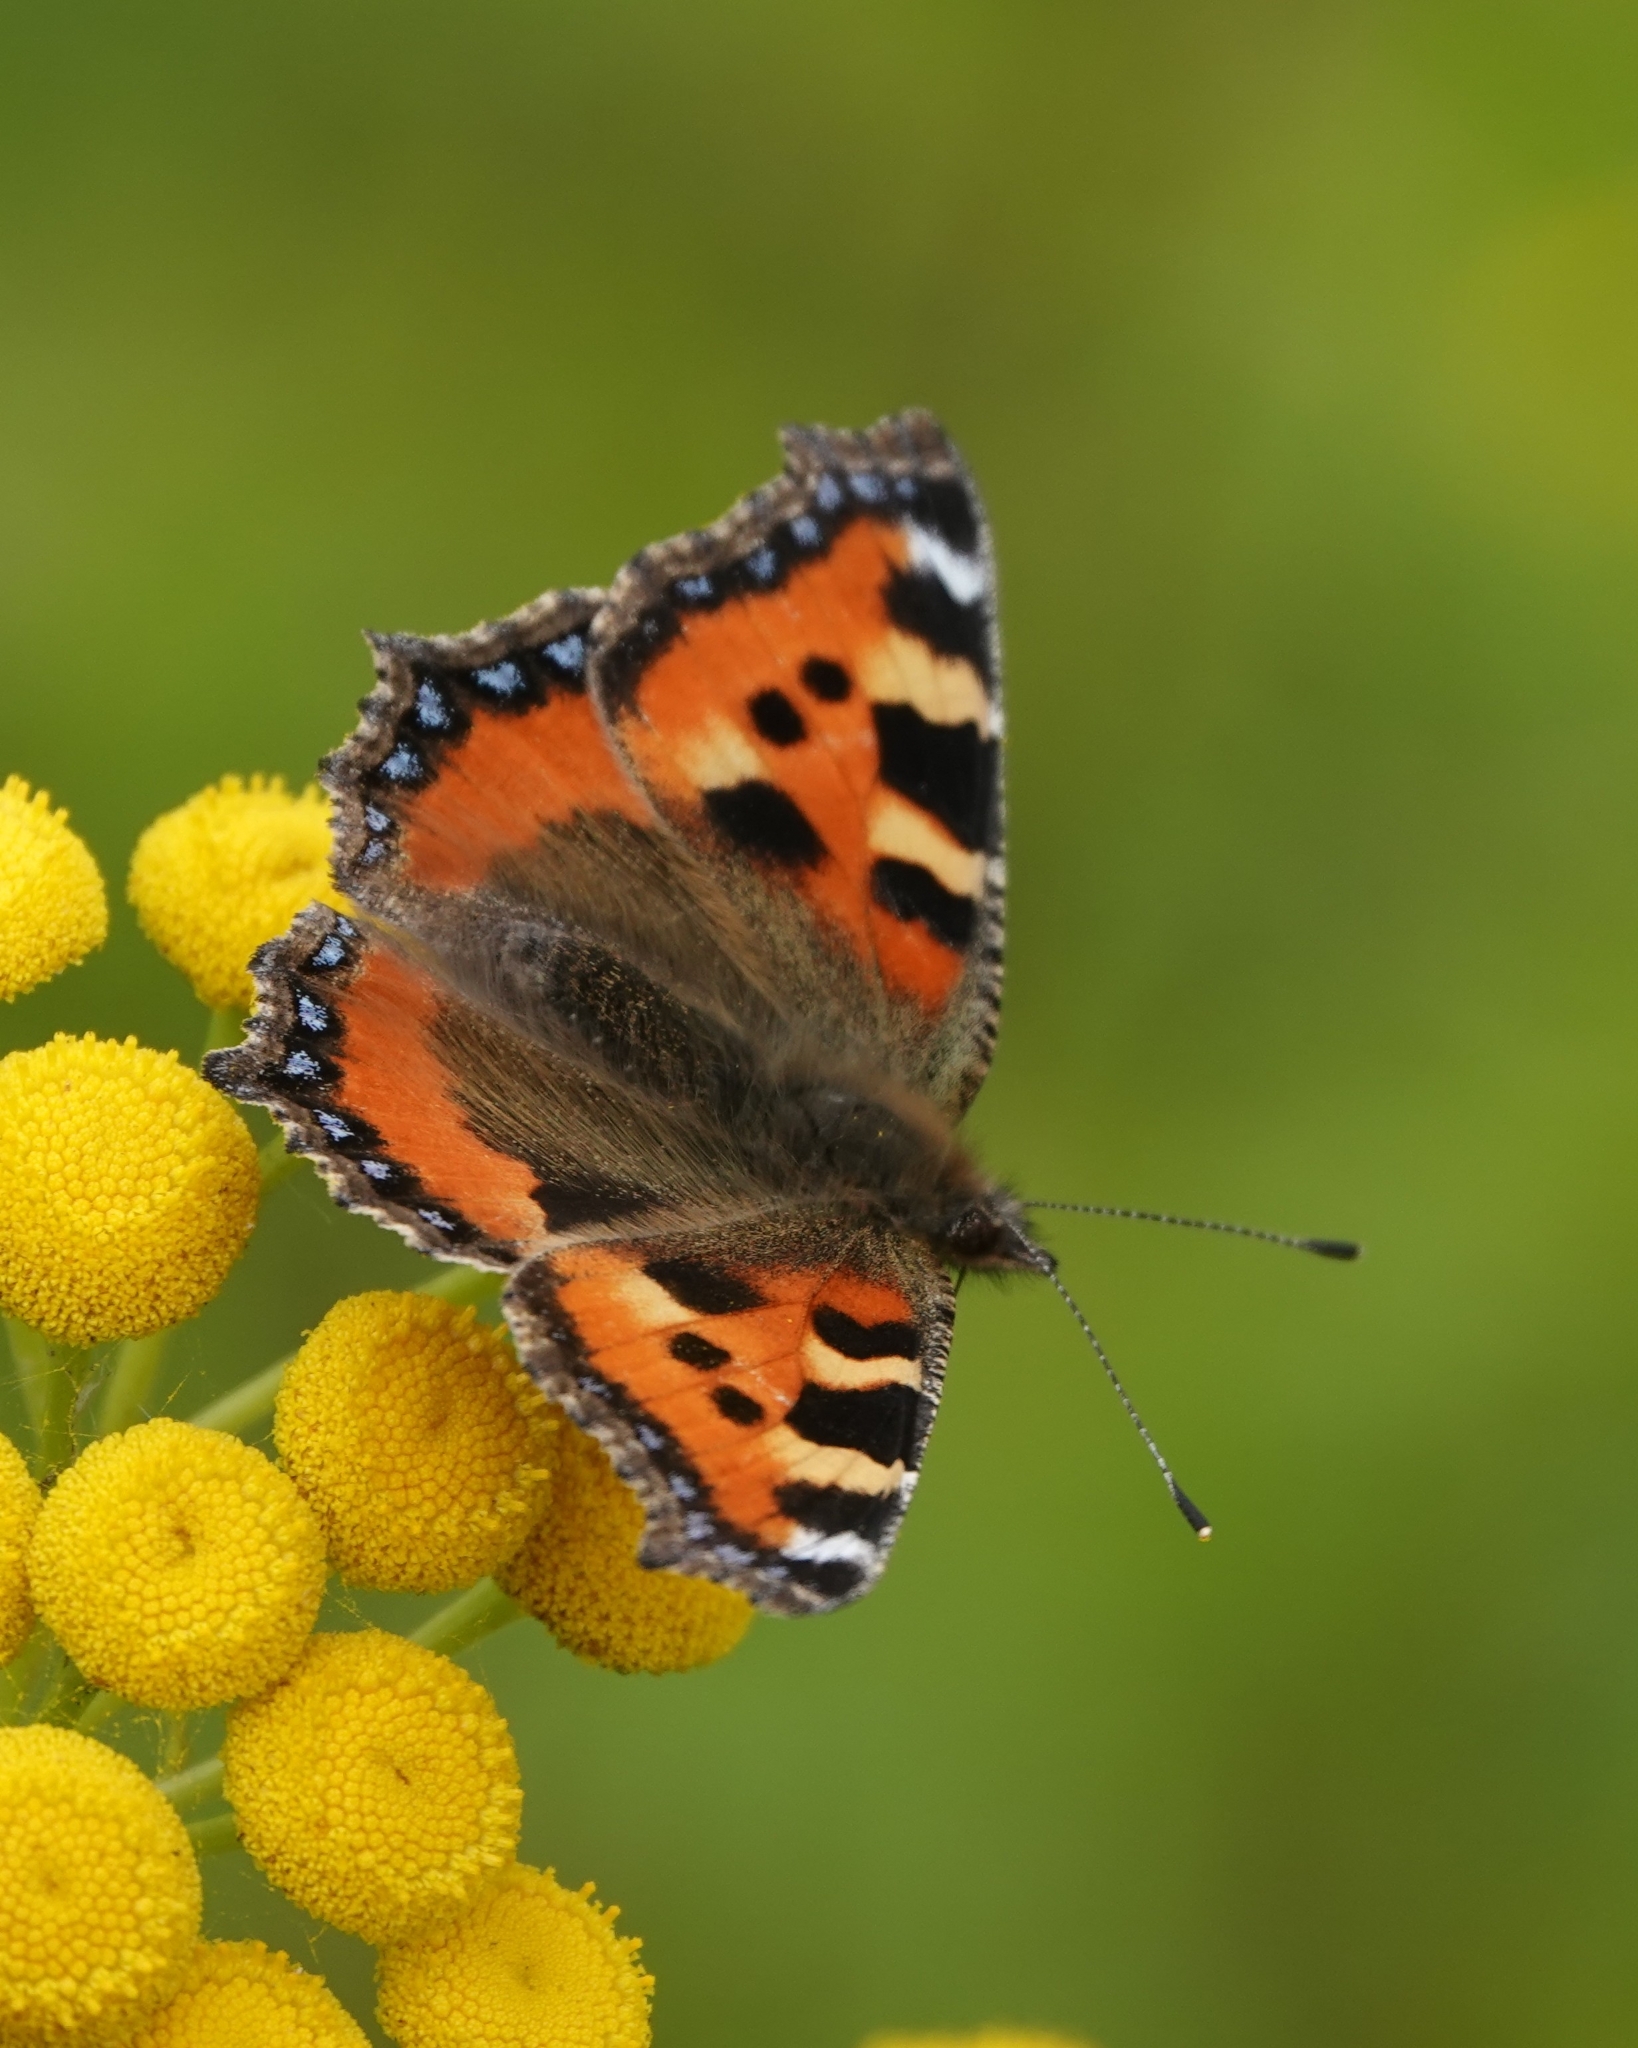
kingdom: Animalia
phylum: Arthropoda
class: Insecta
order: Lepidoptera
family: Nymphalidae
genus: Aglais
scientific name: Aglais urticae
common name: Small tortoiseshell
